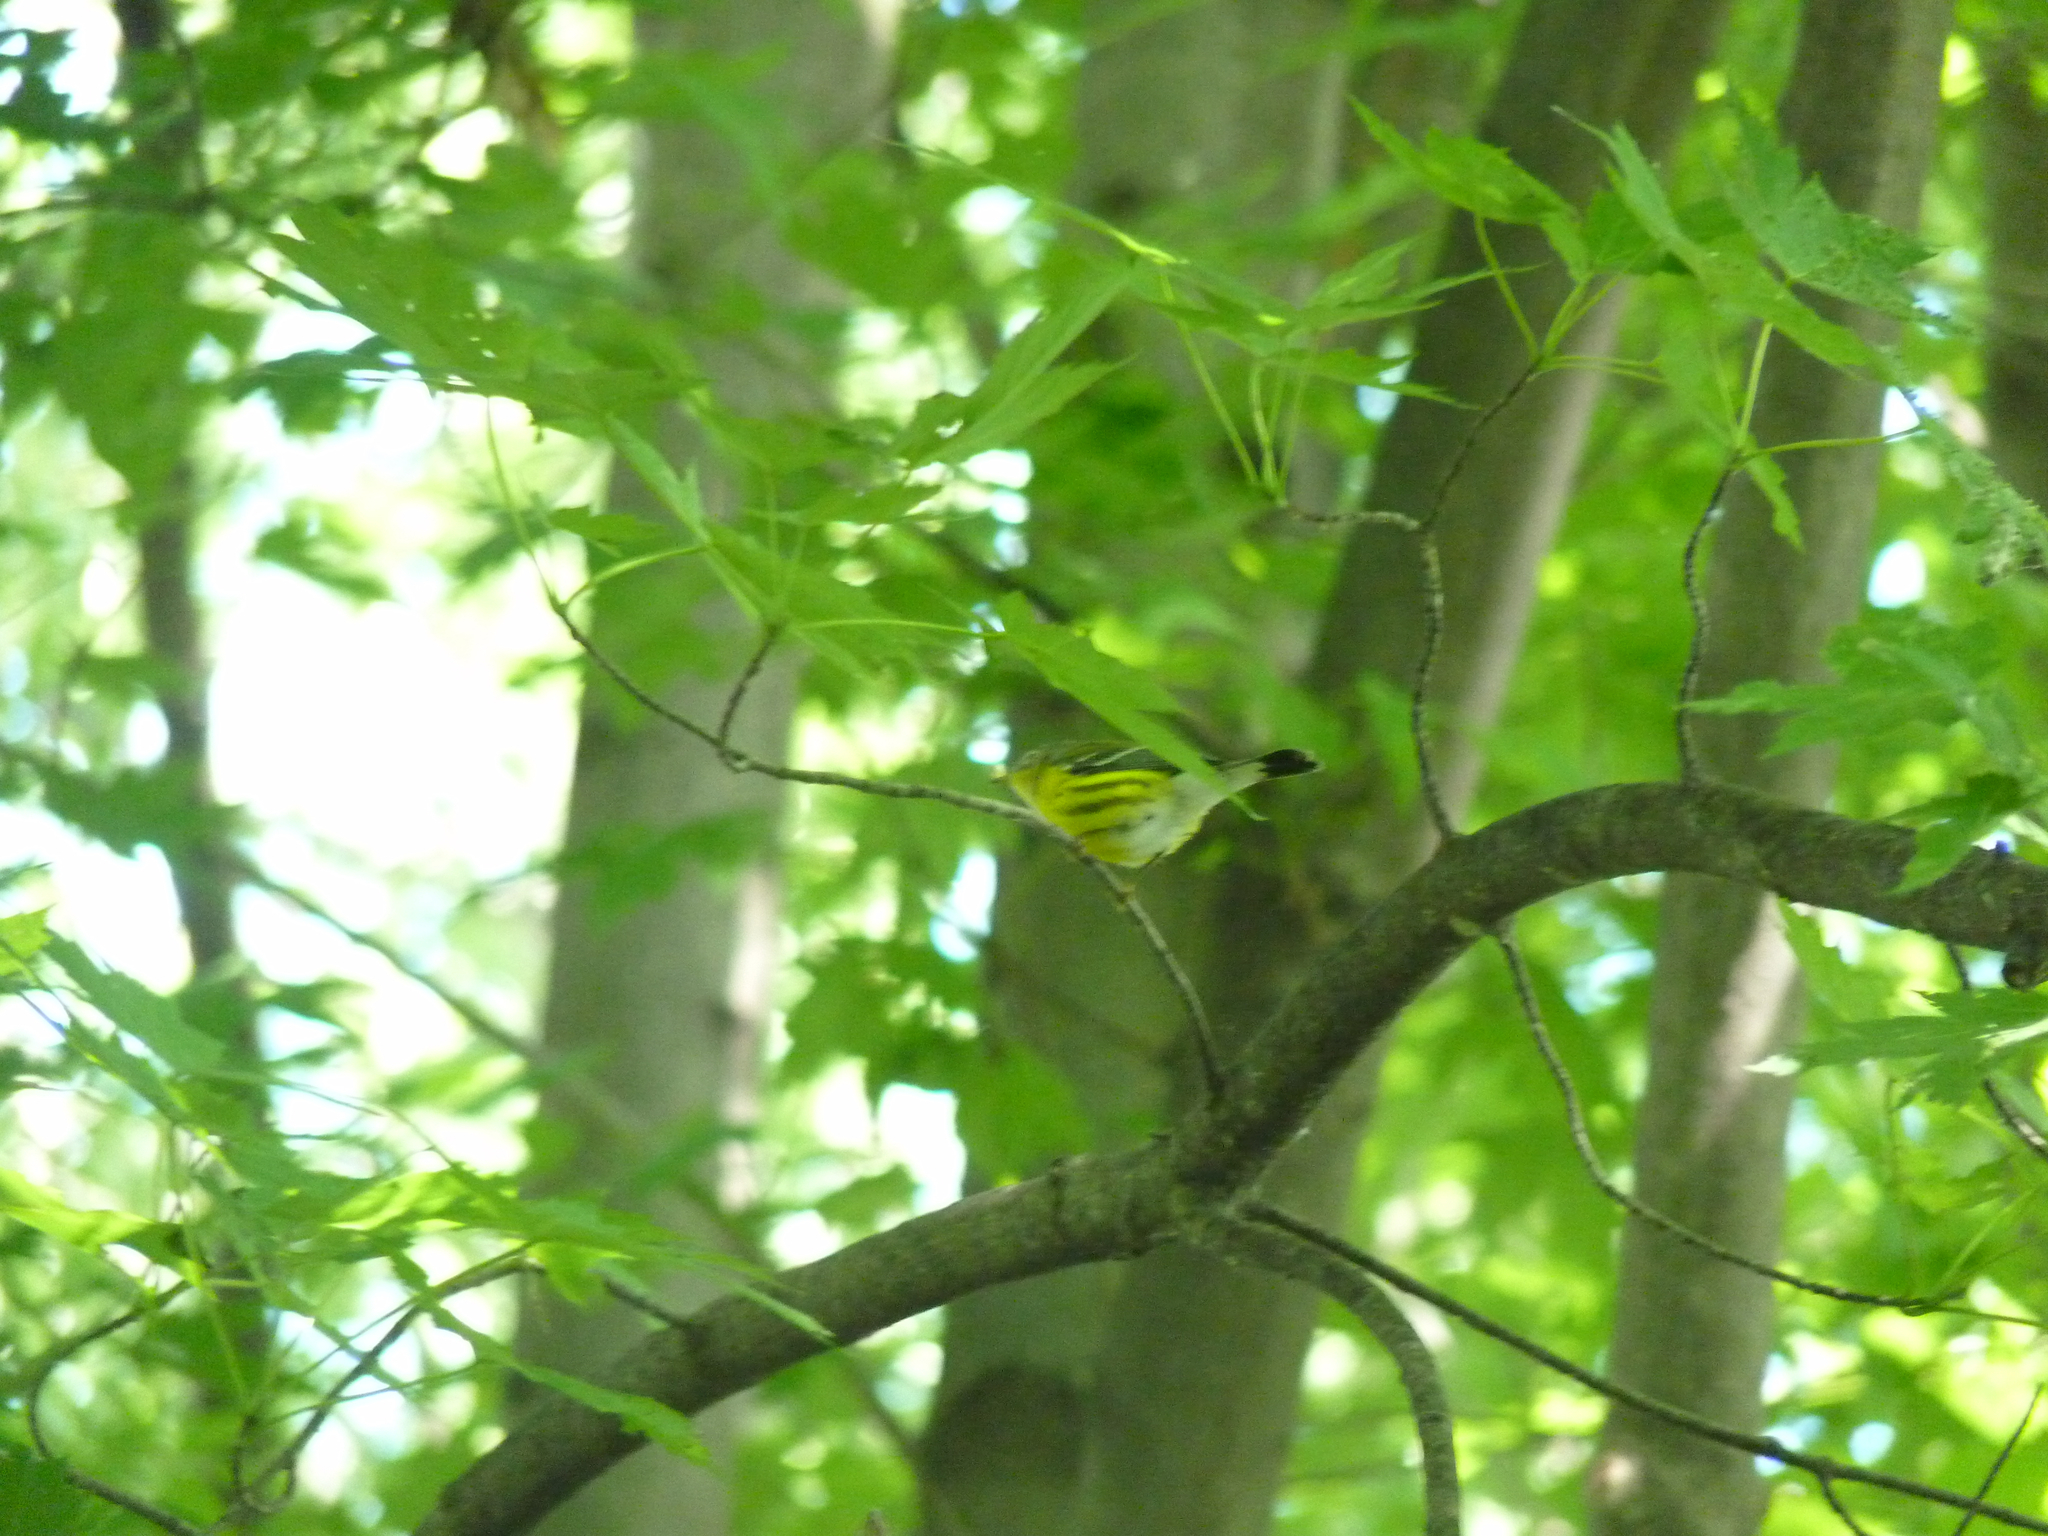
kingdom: Animalia
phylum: Chordata
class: Aves
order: Passeriformes
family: Parulidae
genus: Setophaga
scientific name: Setophaga magnolia
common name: Magnolia warbler
